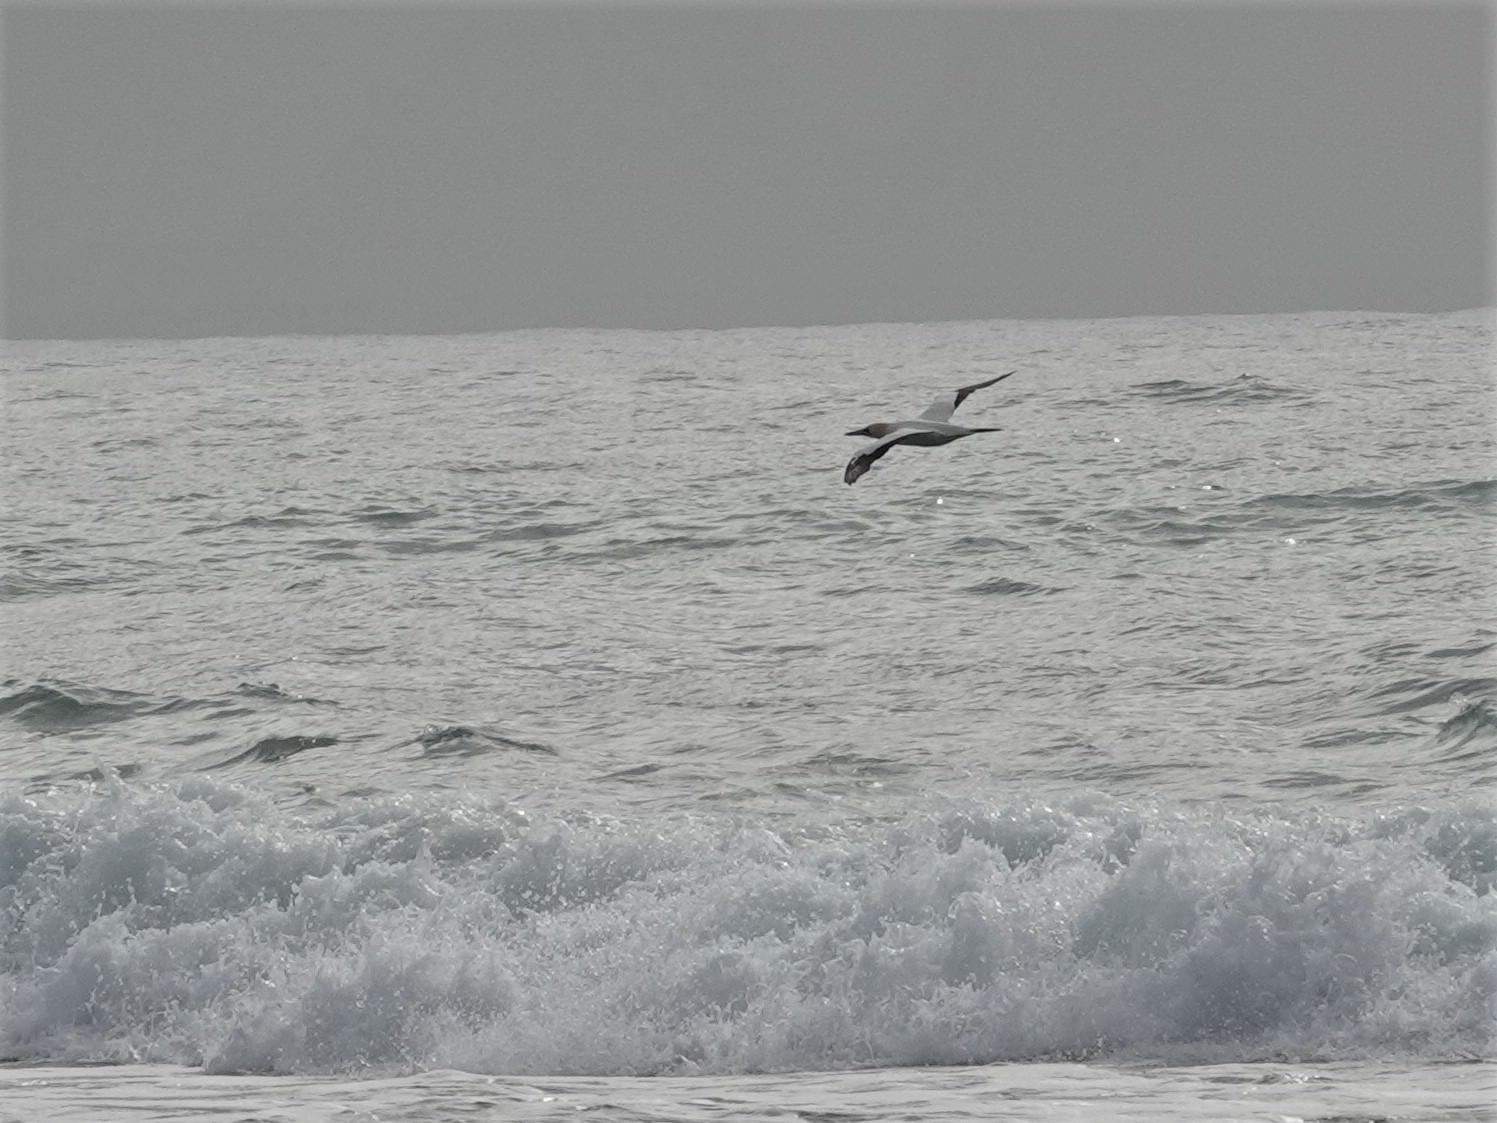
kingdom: Animalia
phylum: Chordata
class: Aves
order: Suliformes
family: Sulidae
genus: Morus
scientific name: Morus serrator
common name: Australasian gannet
